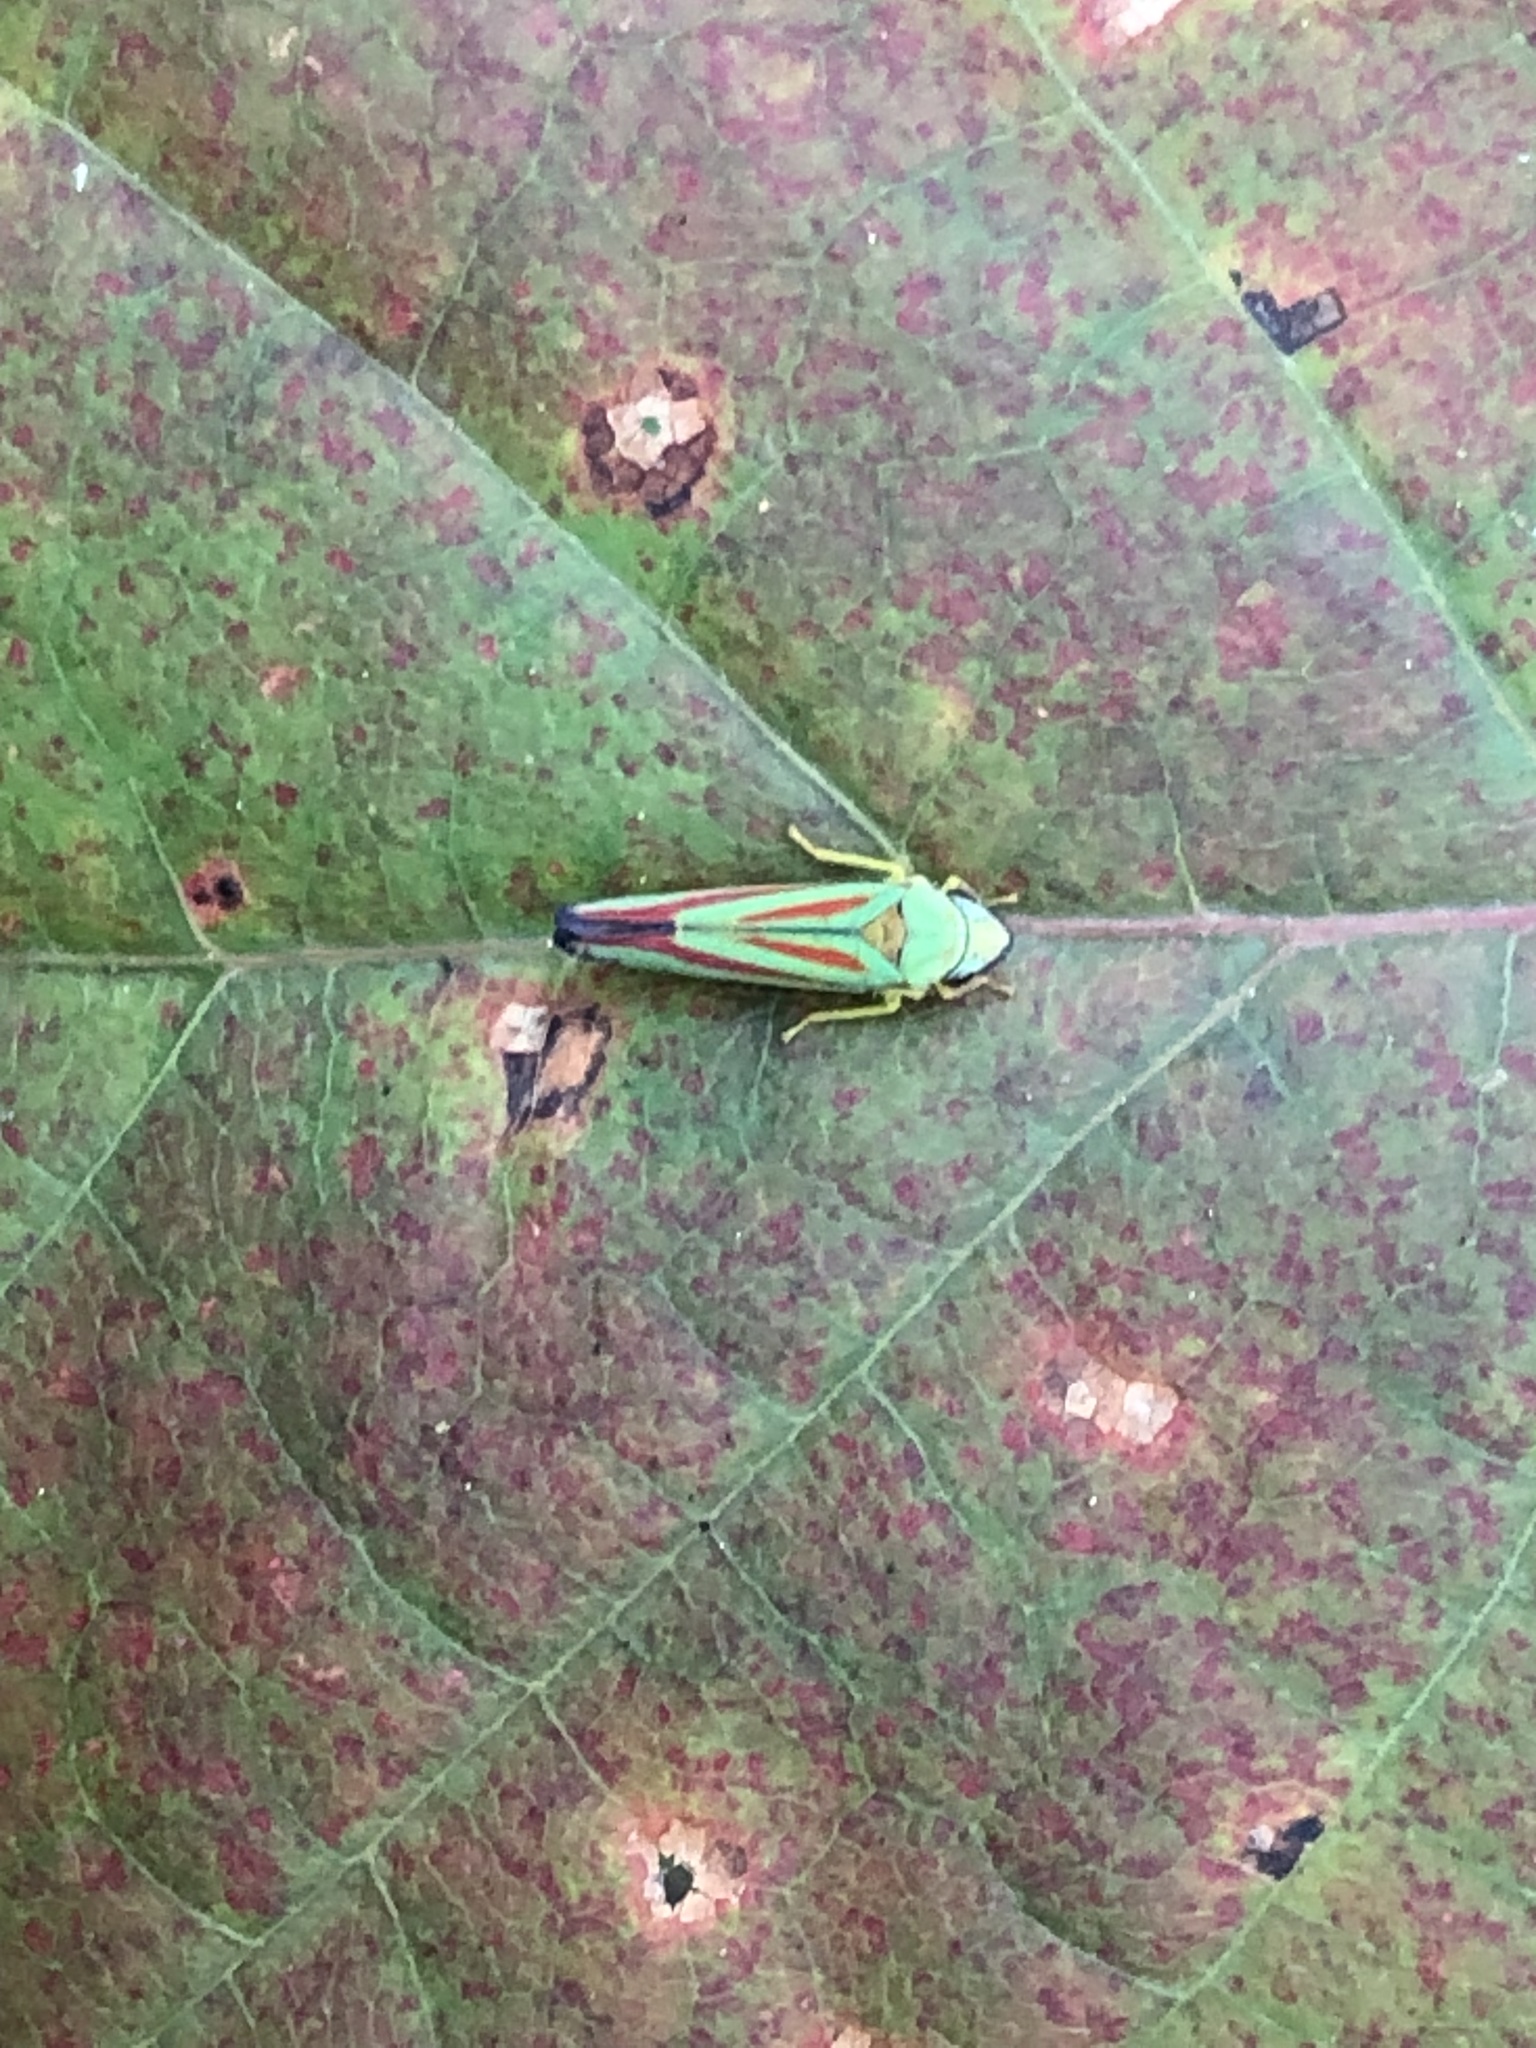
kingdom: Animalia
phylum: Arthropoda
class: Insecta
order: Hemiptera
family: Cicadellidae
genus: Graphocephala
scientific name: Graphocephala fennahi
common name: Rhododendron leafhopper
